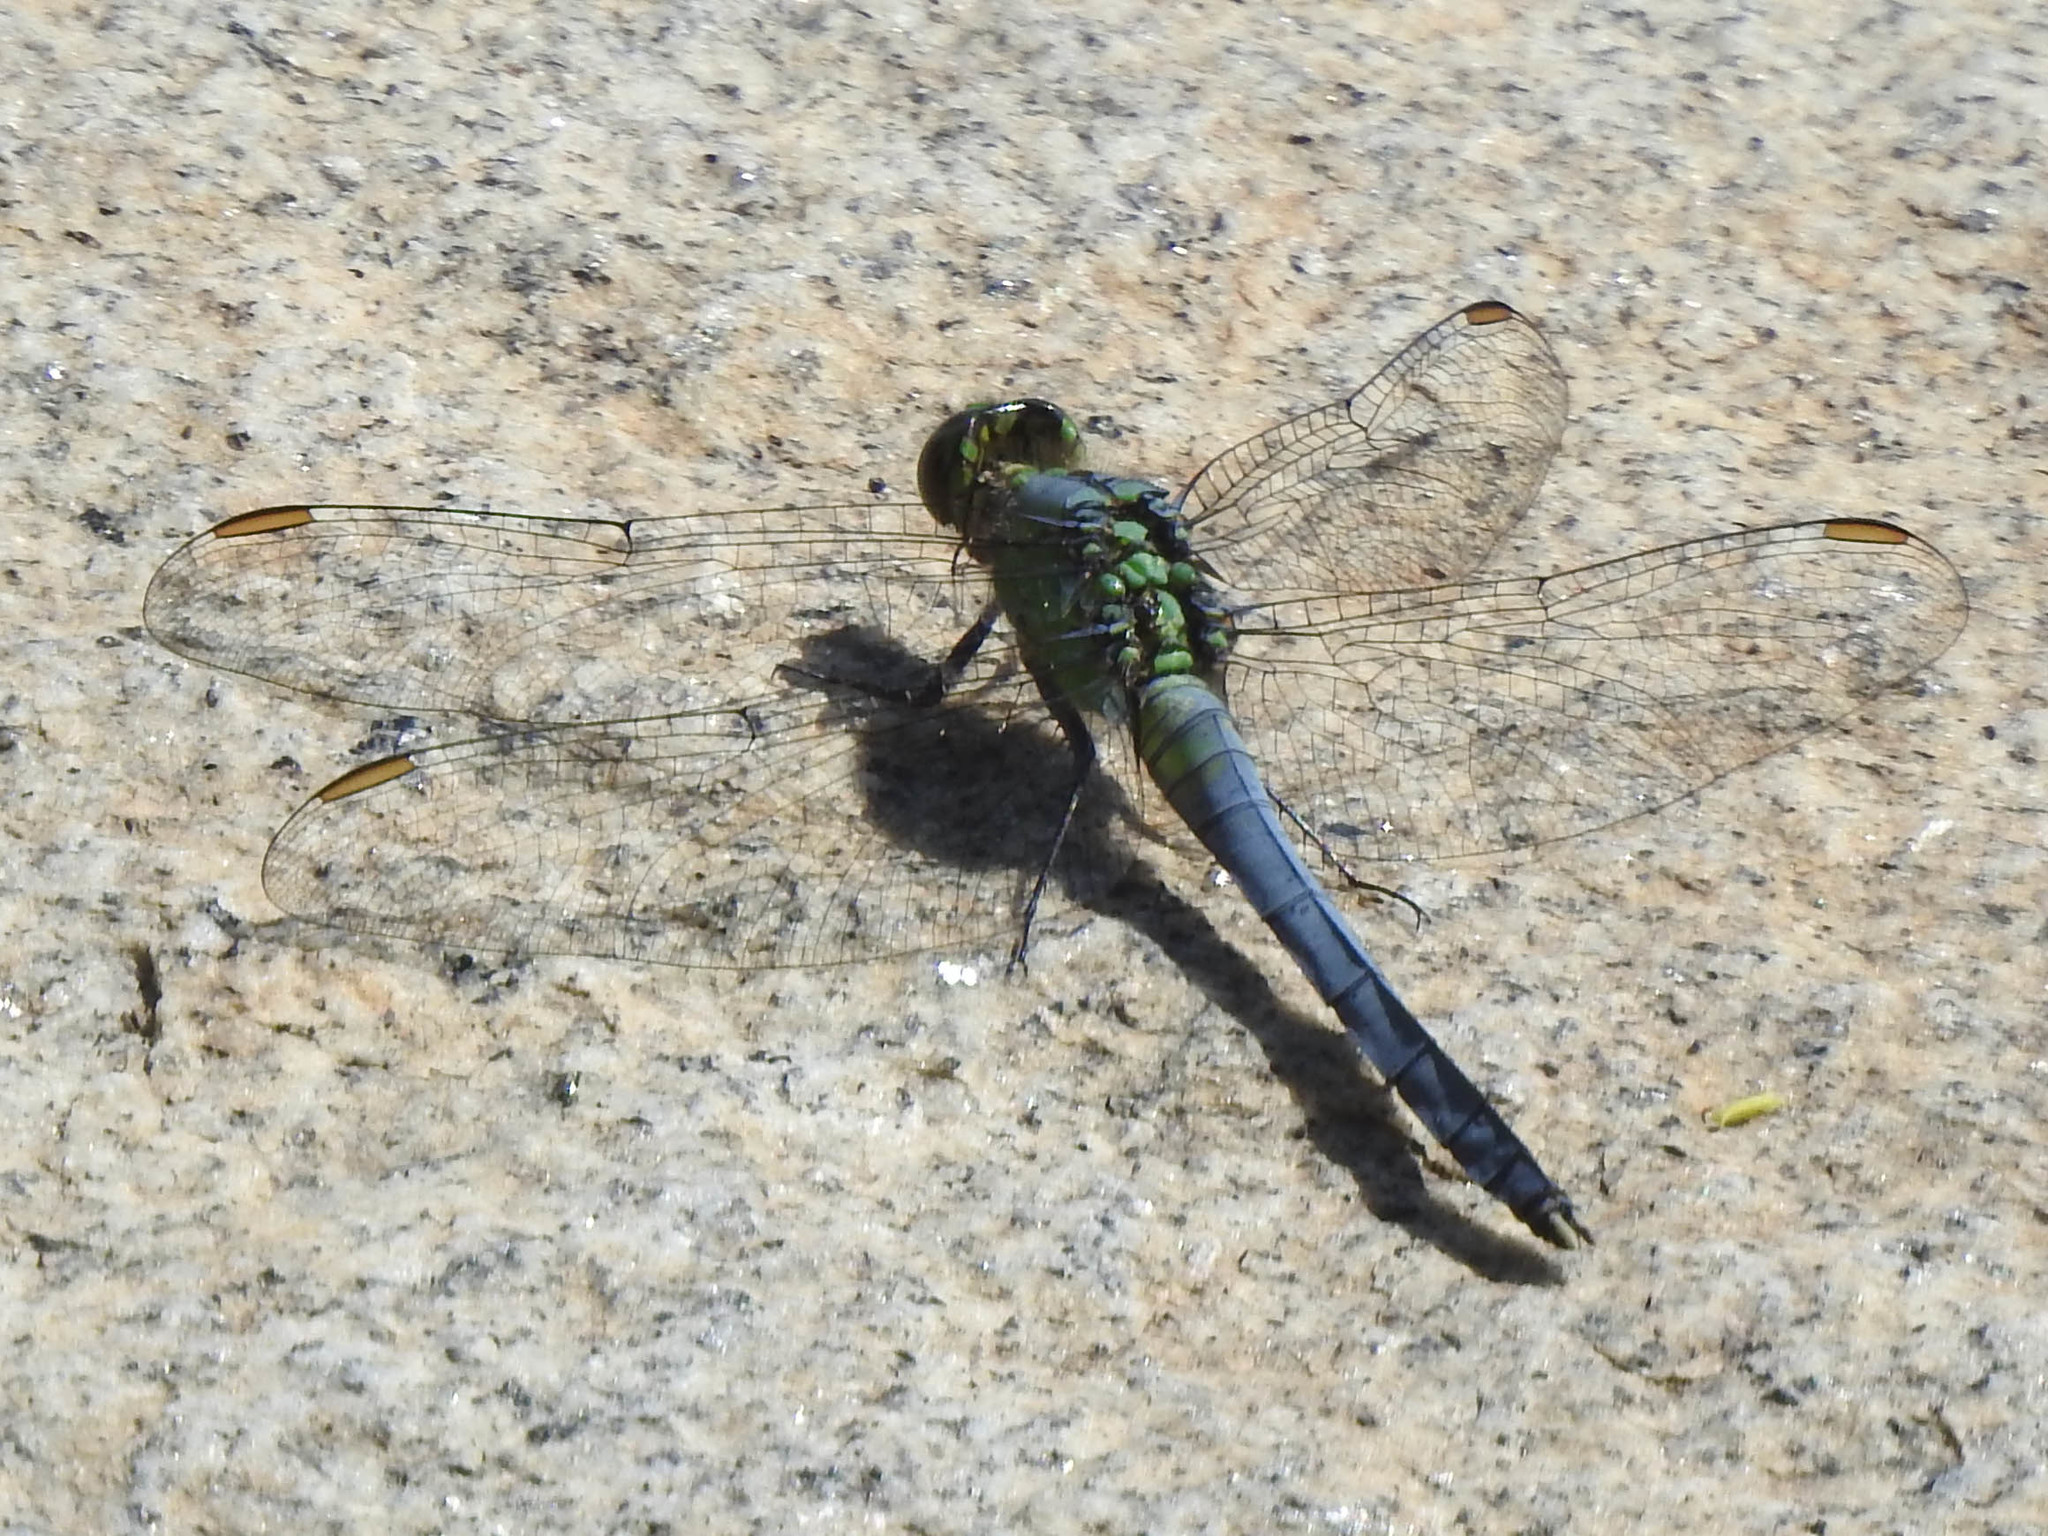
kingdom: Animalia
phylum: Arthropoda
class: Insecta
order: Odonata
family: Libellulidae
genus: Erythemis
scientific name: Erythemis simplicicollis
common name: Eastern pondhawk
